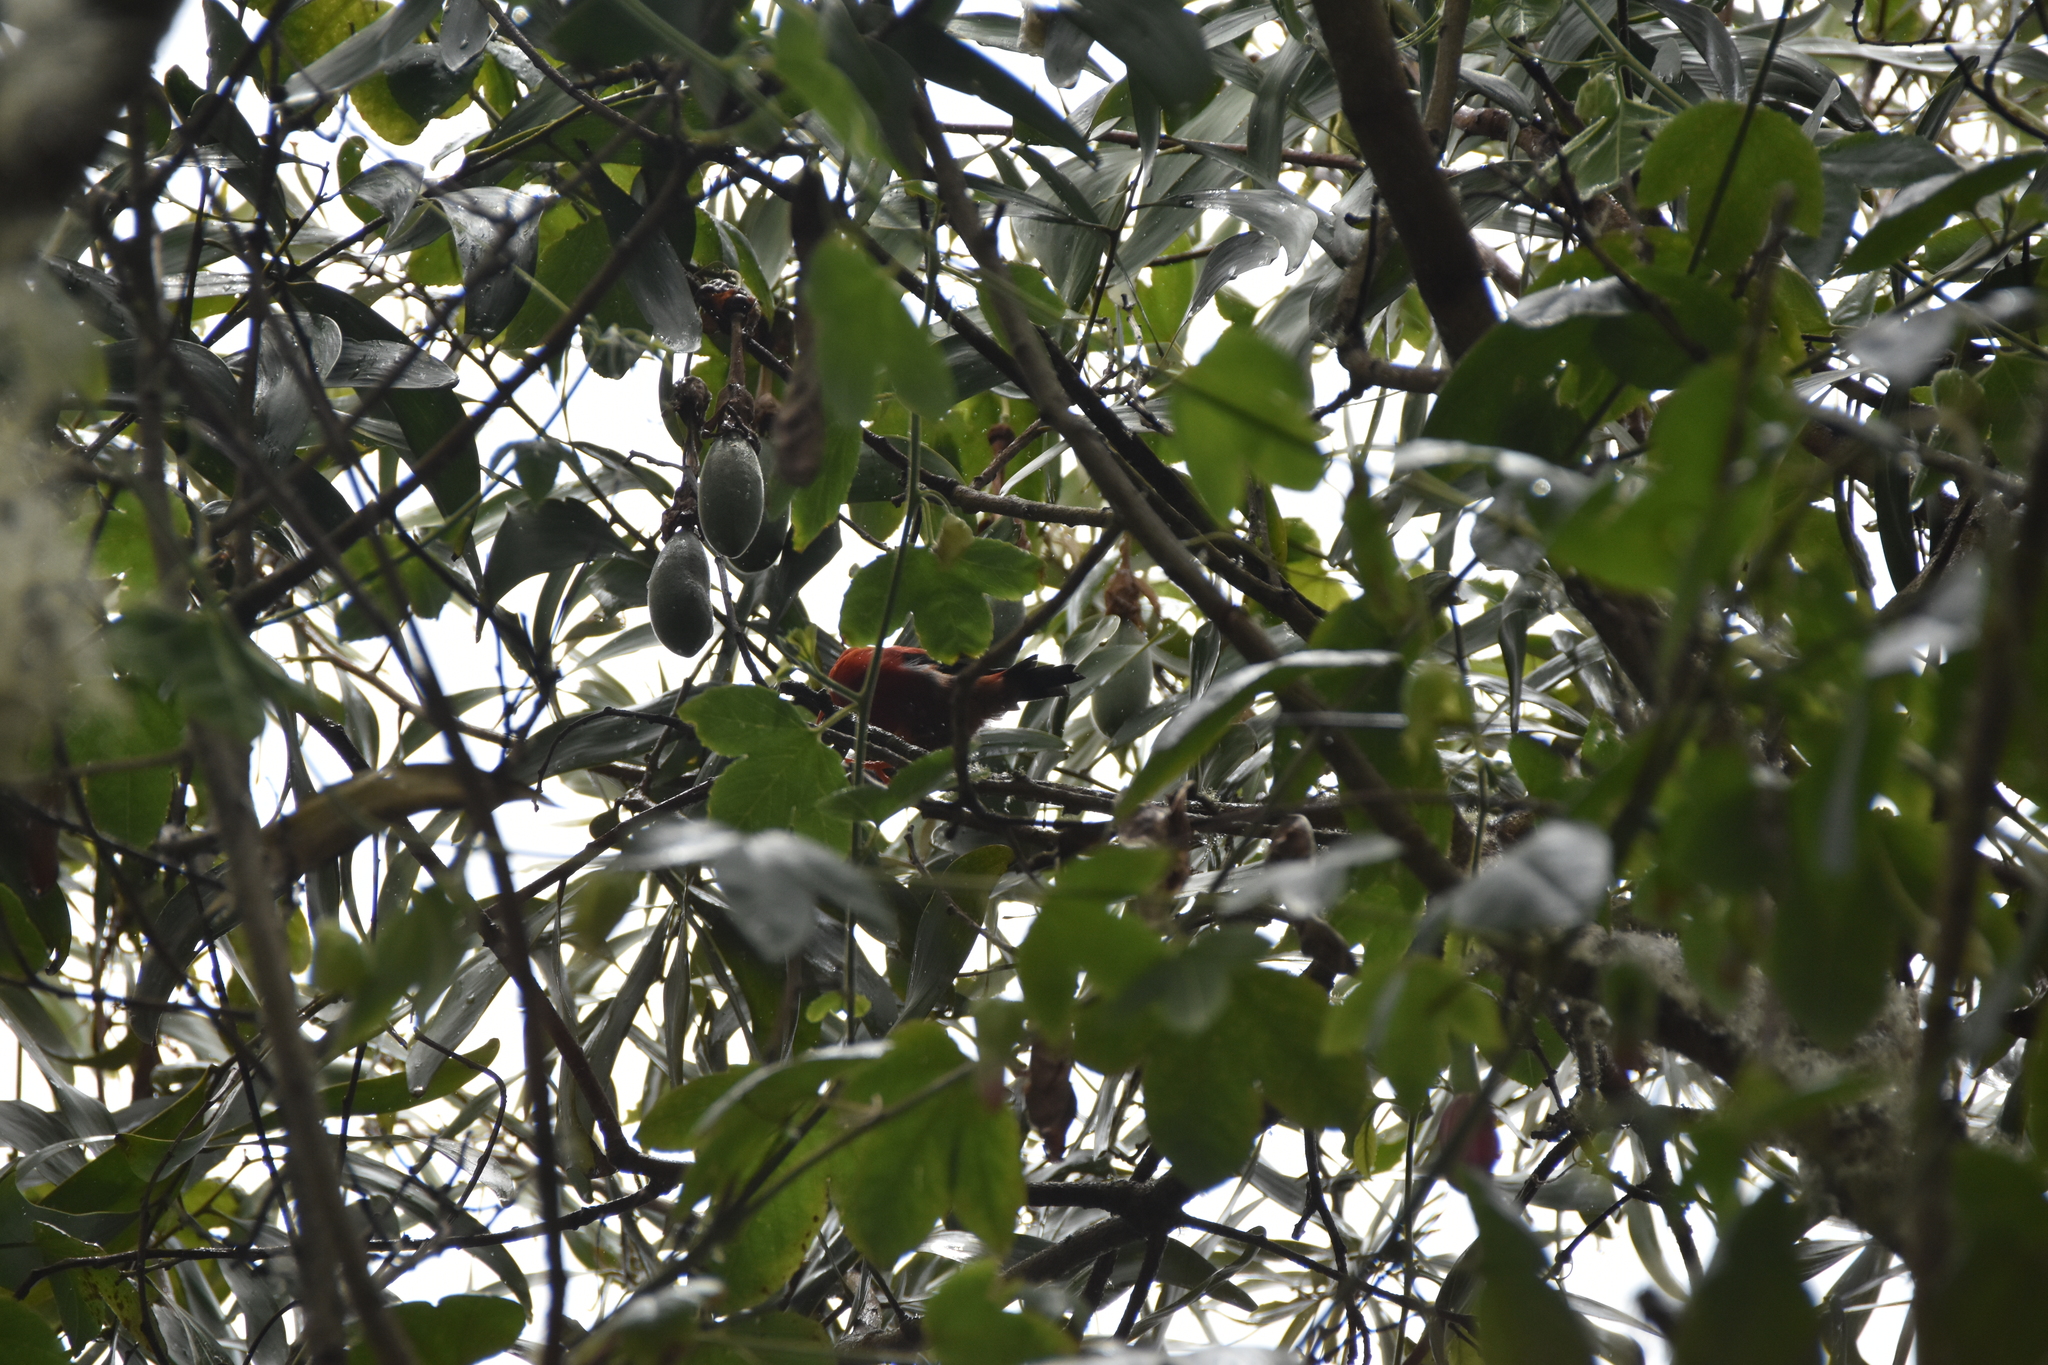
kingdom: Animalia
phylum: Chordata
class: Aves
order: Passeriformes
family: Fringillidae
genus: Vestiaria
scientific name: Vestiaria coccinea
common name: Iiwi
